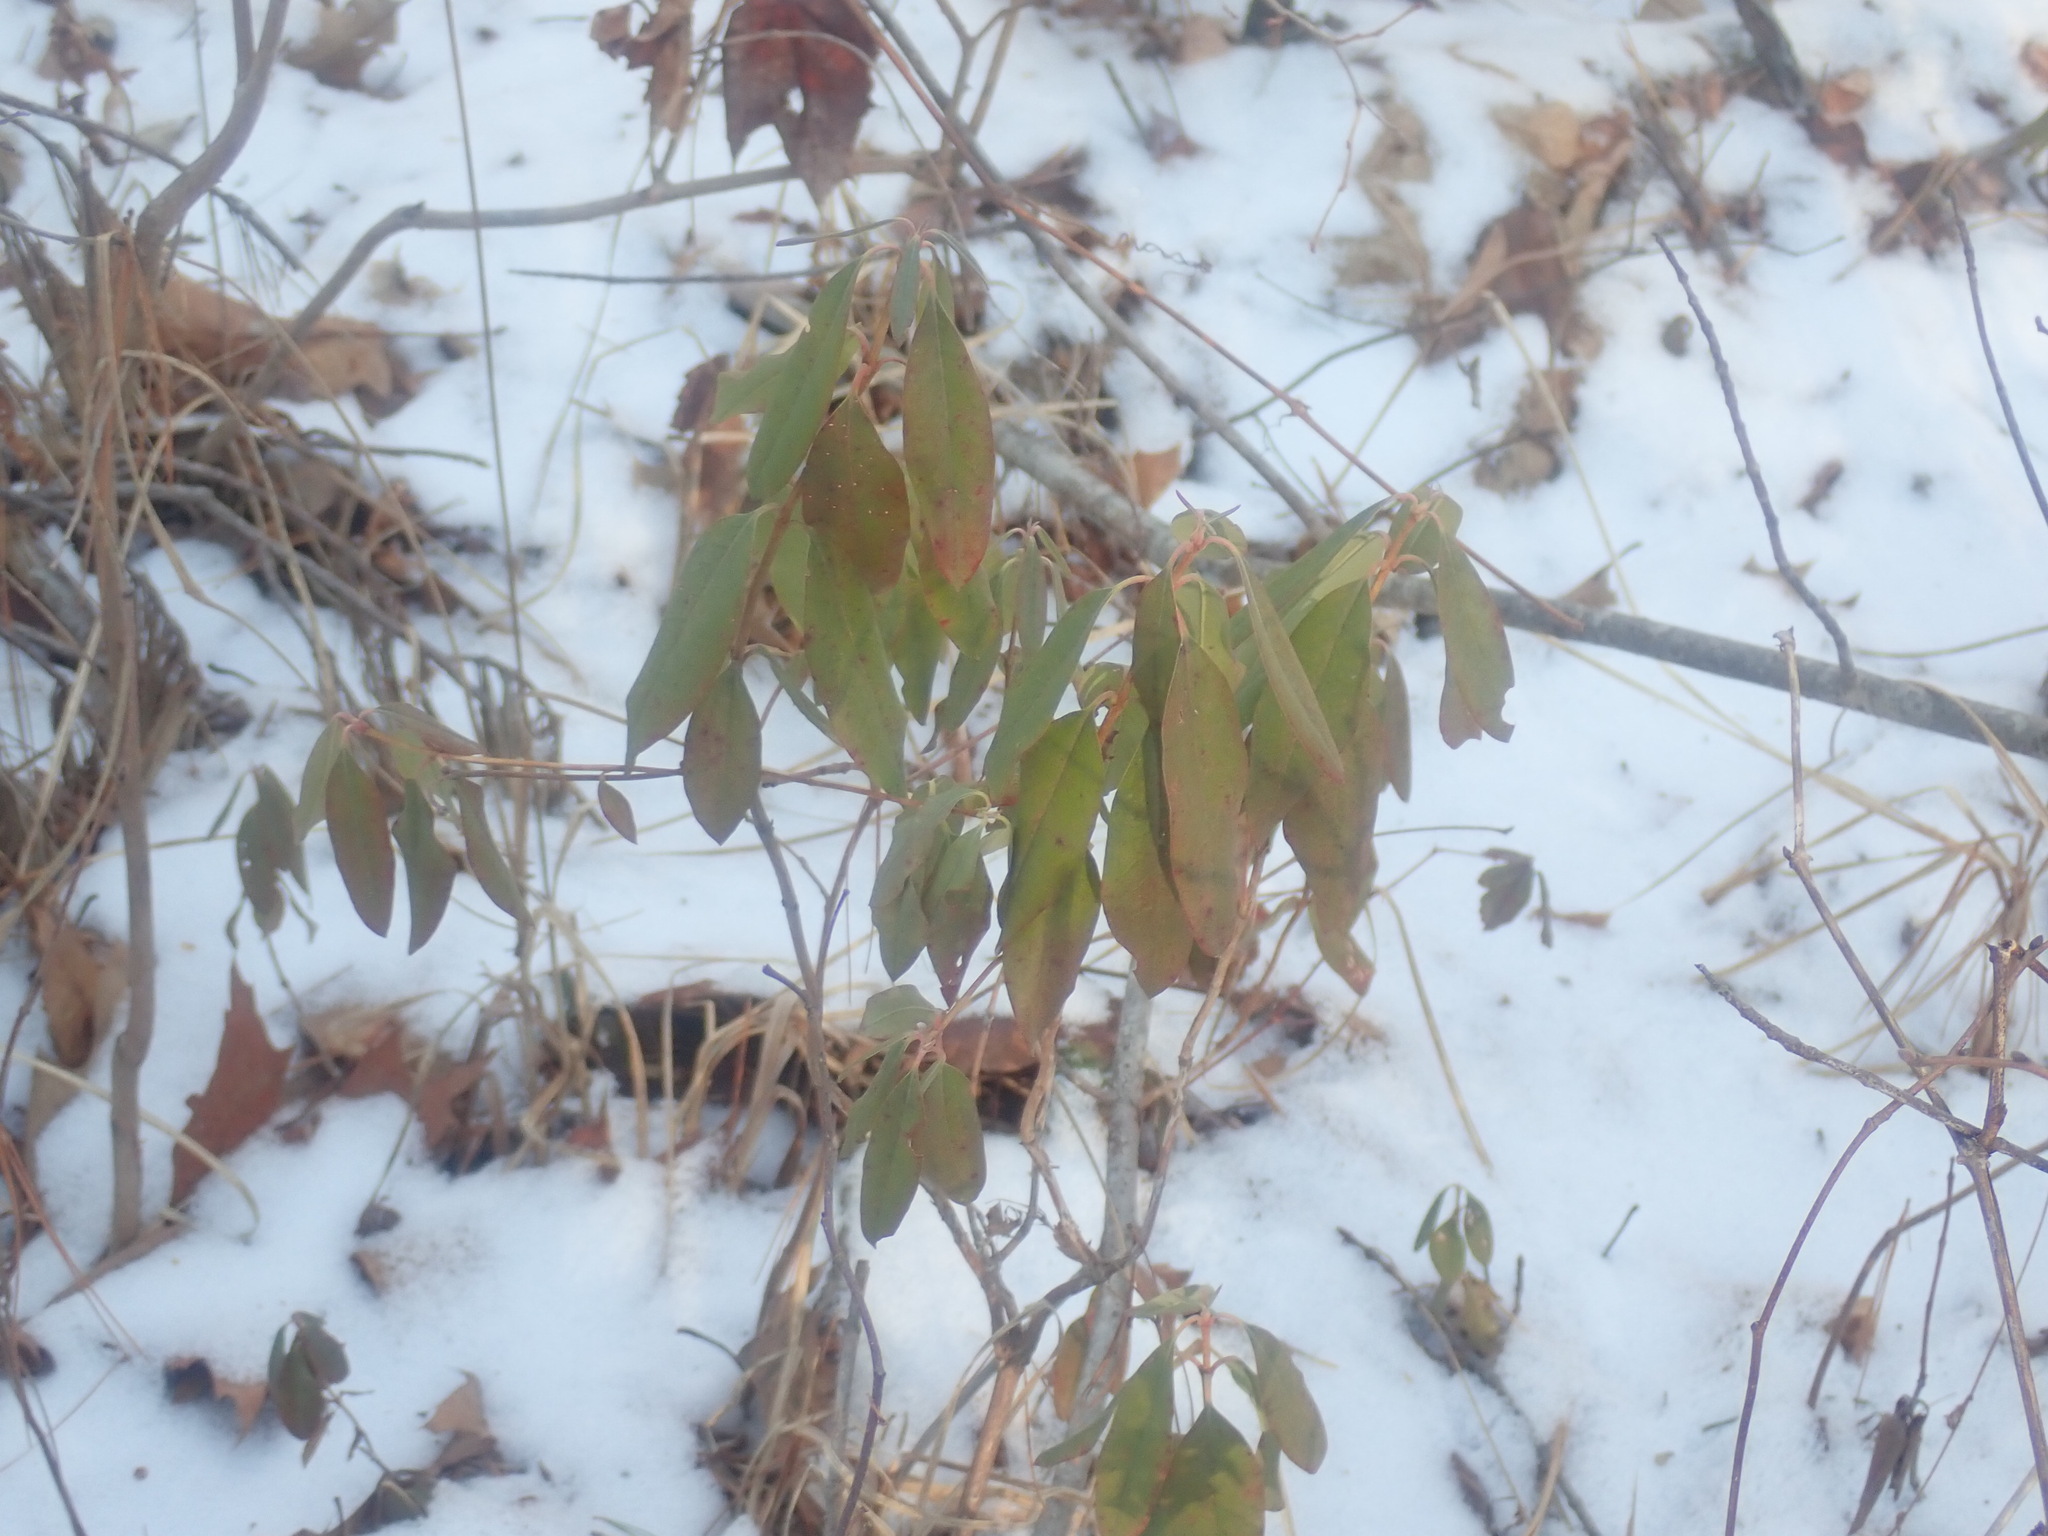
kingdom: Plantae
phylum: Tracheophyta
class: Magnoliopsida
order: Ericales
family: Ericaceae
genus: Kalmia
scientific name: Kalmia angustifolia
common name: Sheep-laurel
